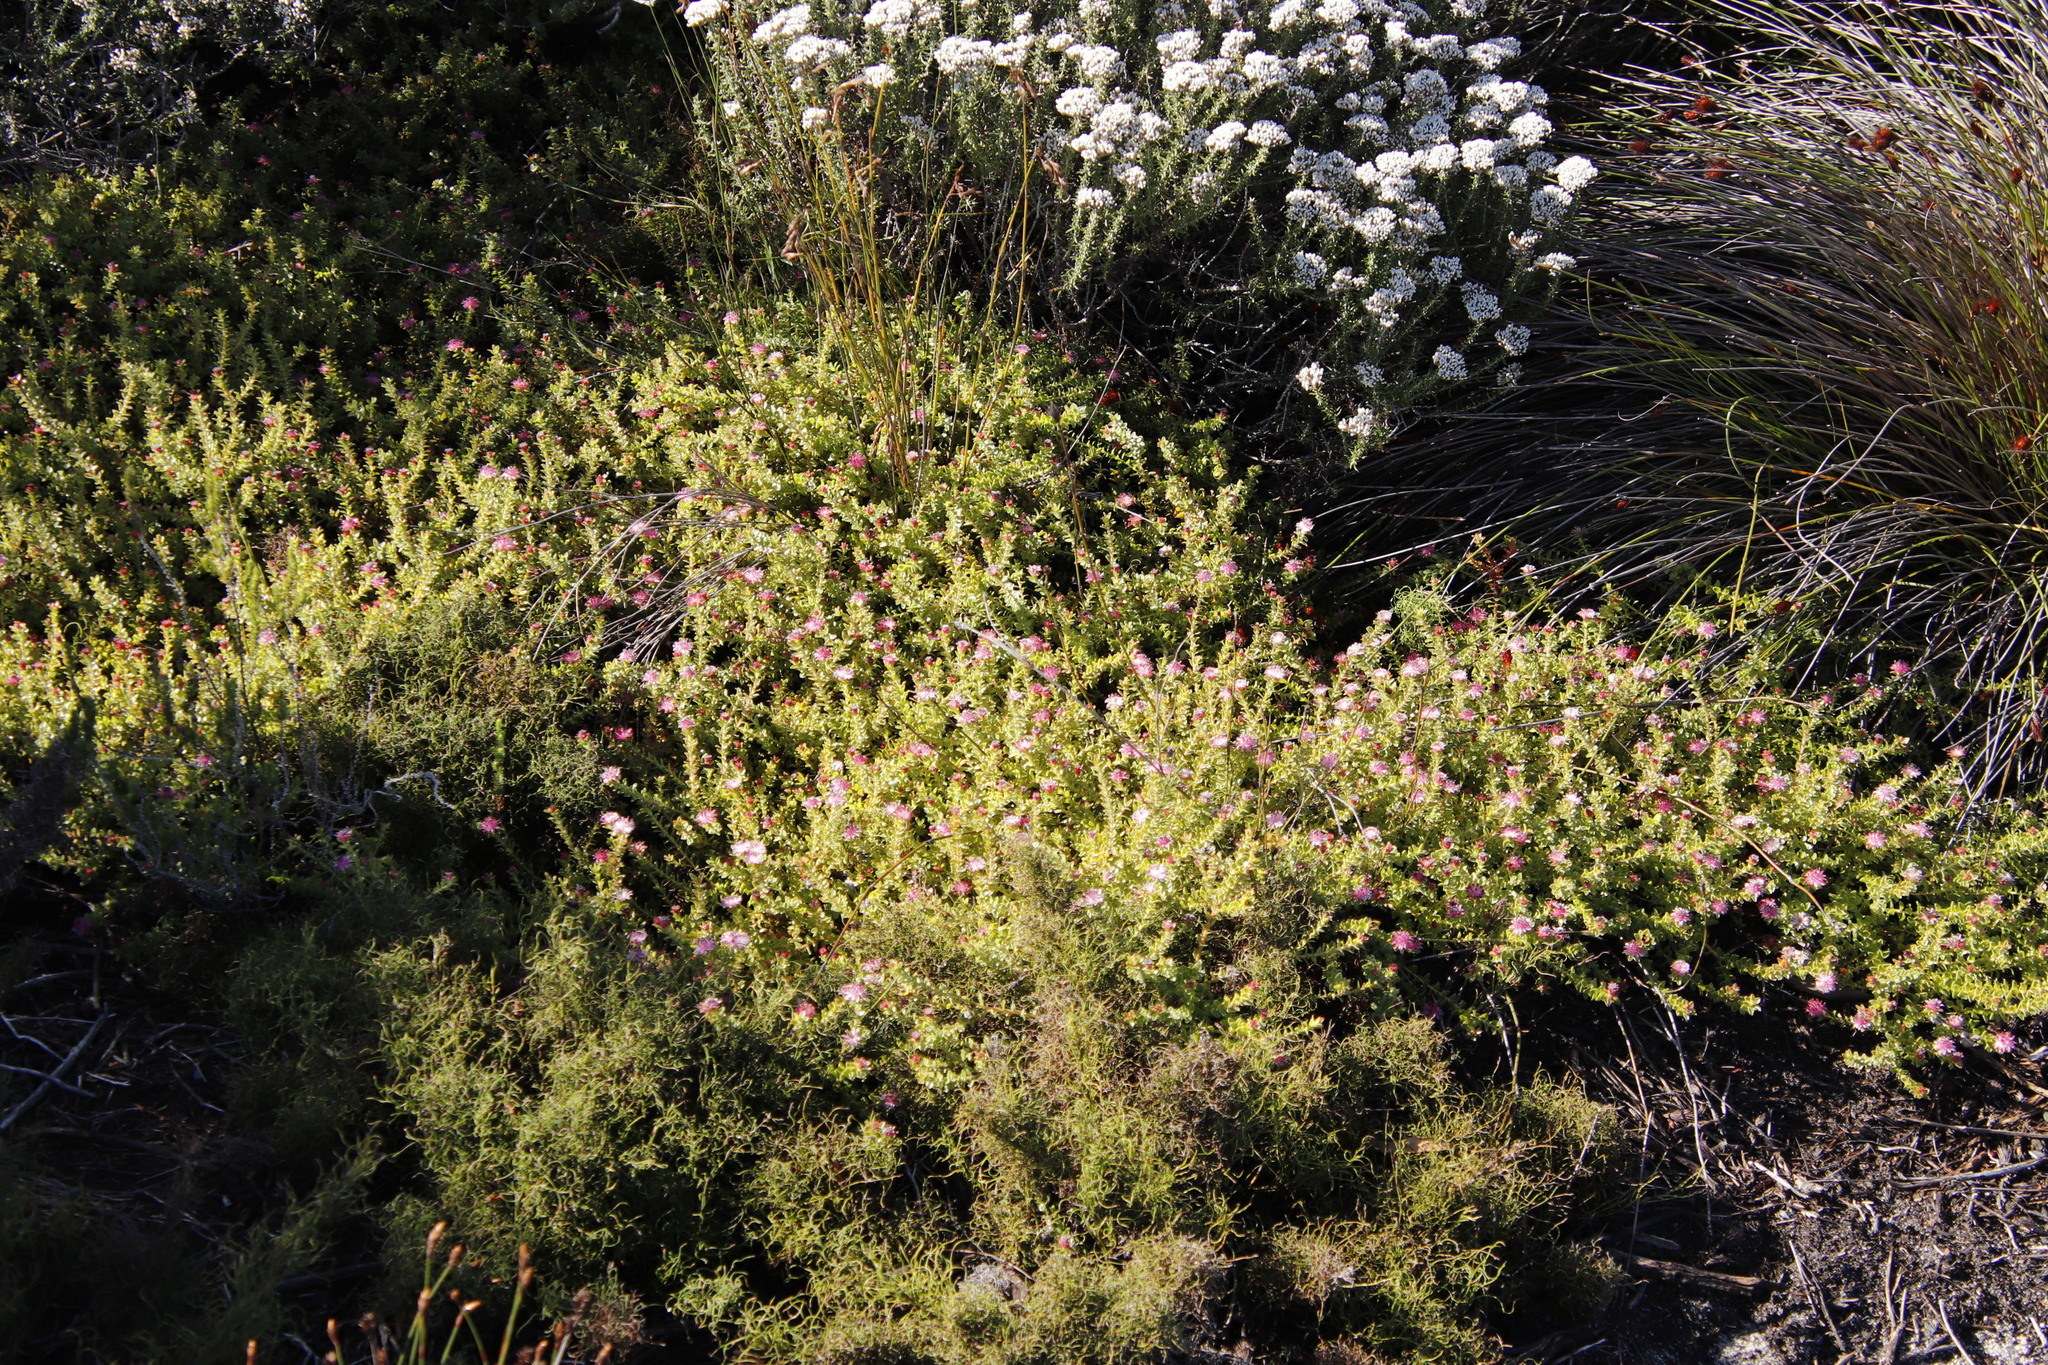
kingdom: Plantae
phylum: Tracheophyta
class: Magnoliopsida
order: Proteales
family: Proteaceae
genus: Diastella
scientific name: Diastella divaricata
